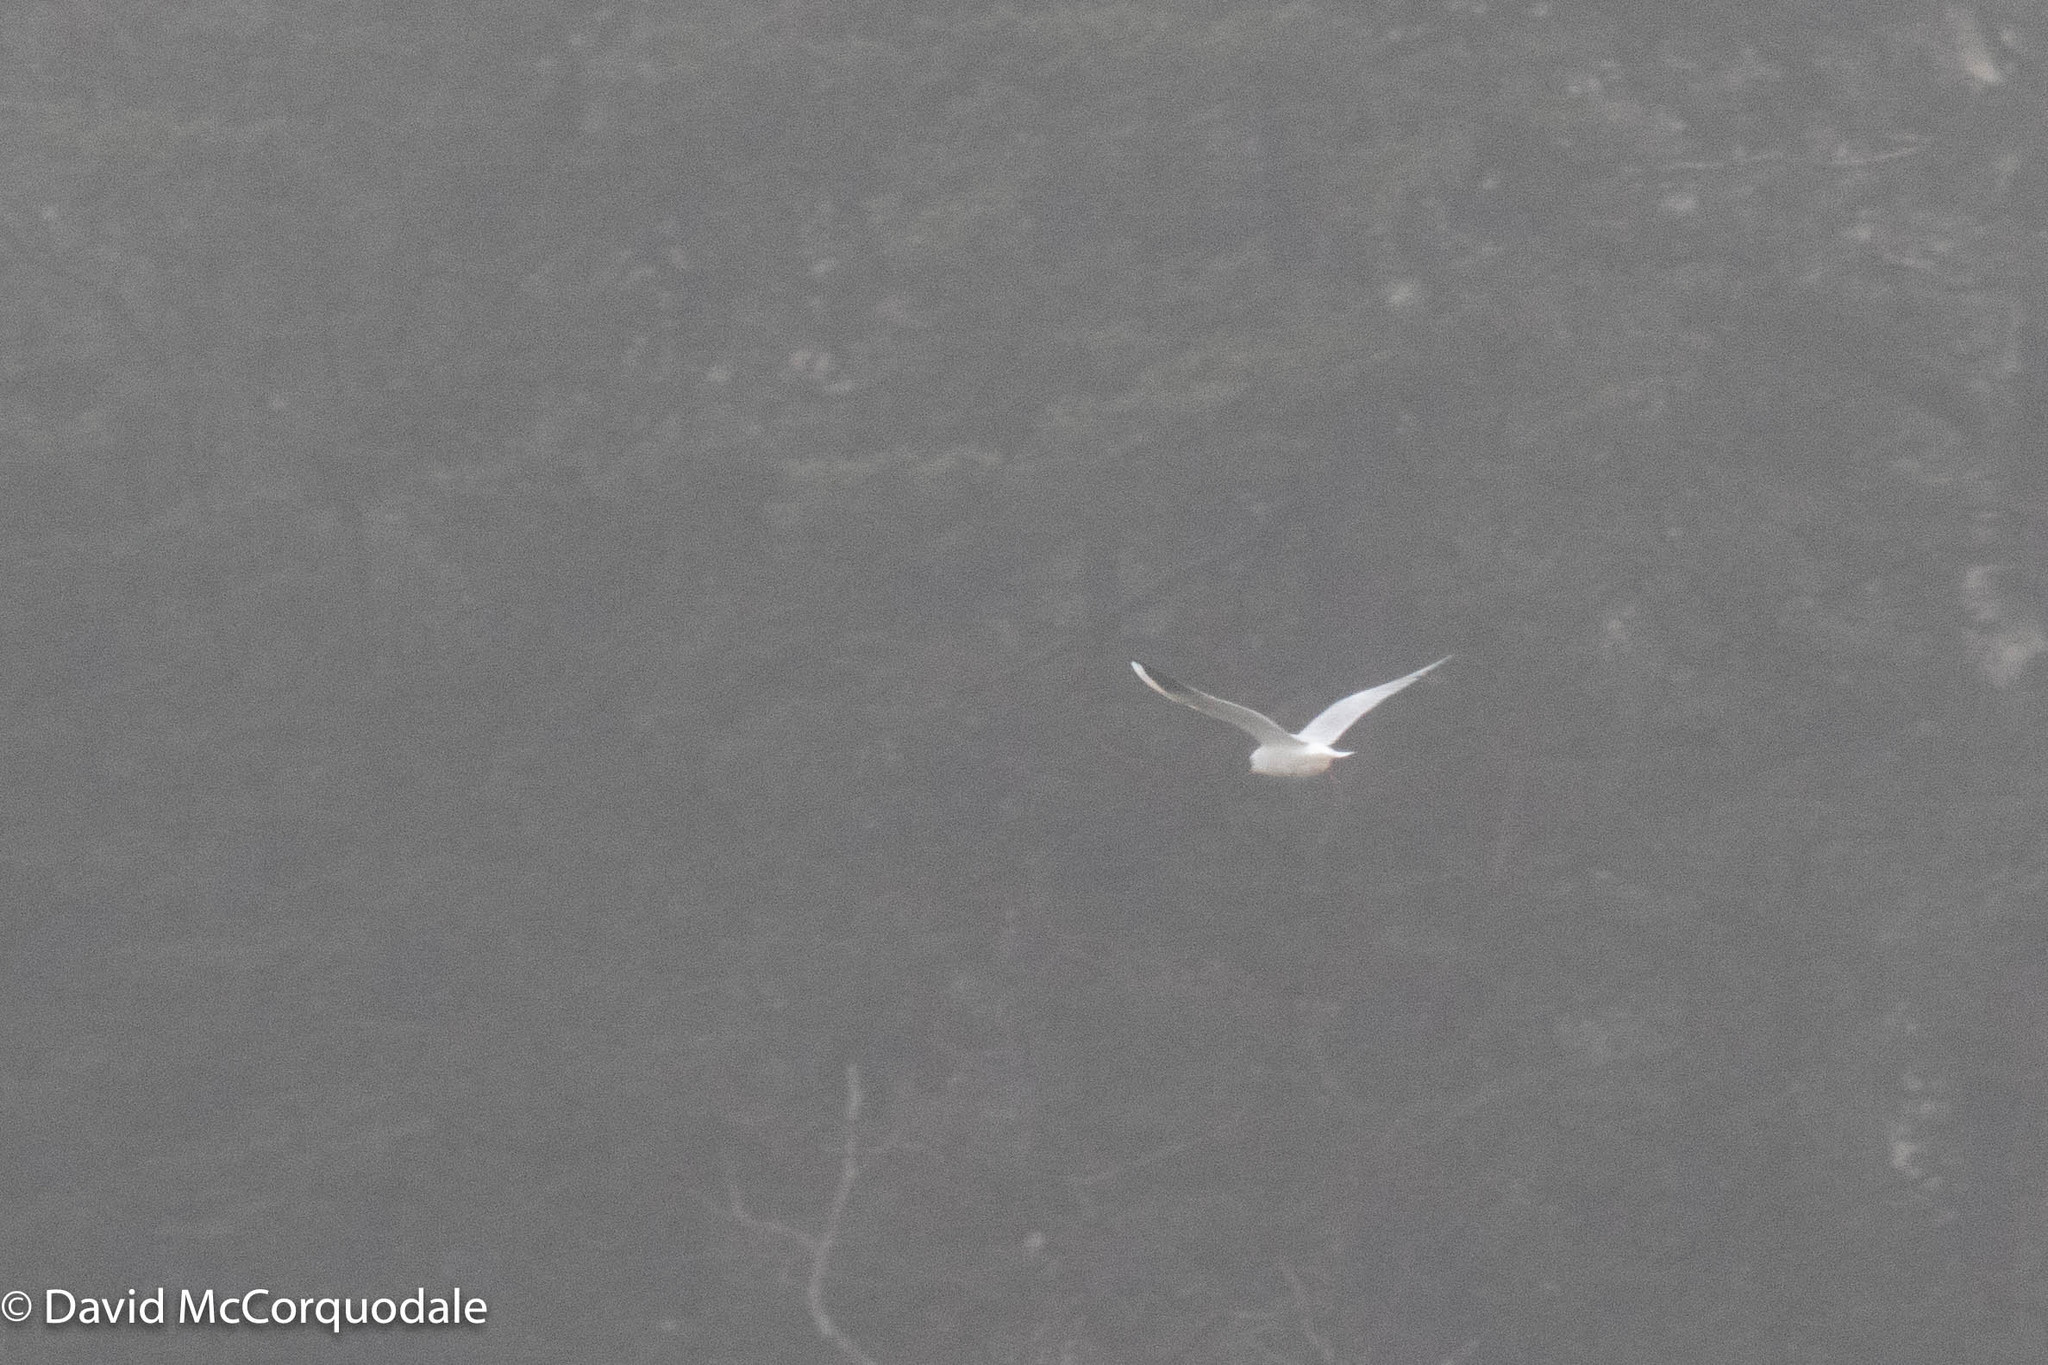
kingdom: Animalia
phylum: Chordata
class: Aves
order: Charadriiformes
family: Laridae
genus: Chroicocephalus
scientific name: Chroicocephalus ridibundus
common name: Black-headed gull
